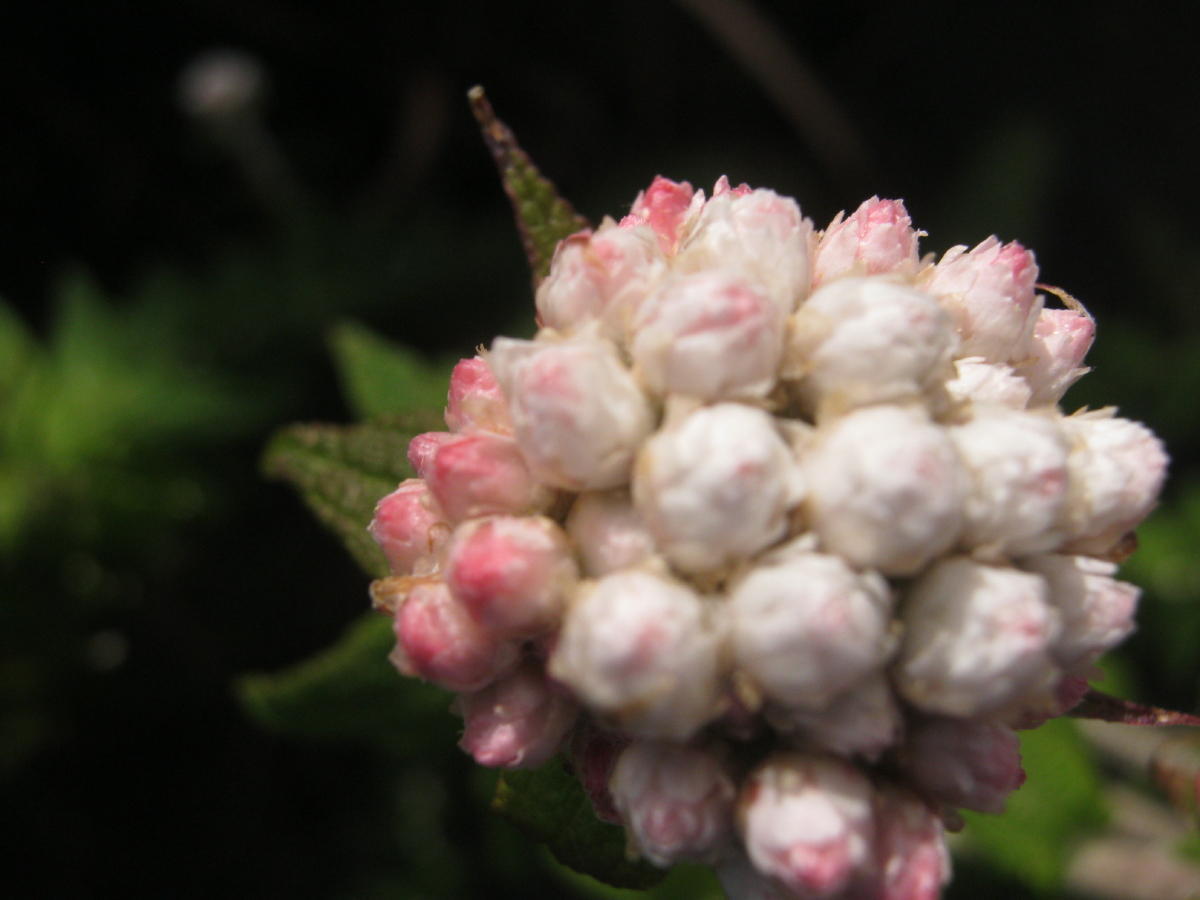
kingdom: Plantae
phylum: Tracheophyta
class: Magnoliopsida
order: Asterales
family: Asteraceae
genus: Helichrysum
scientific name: Helichrysum felinum
